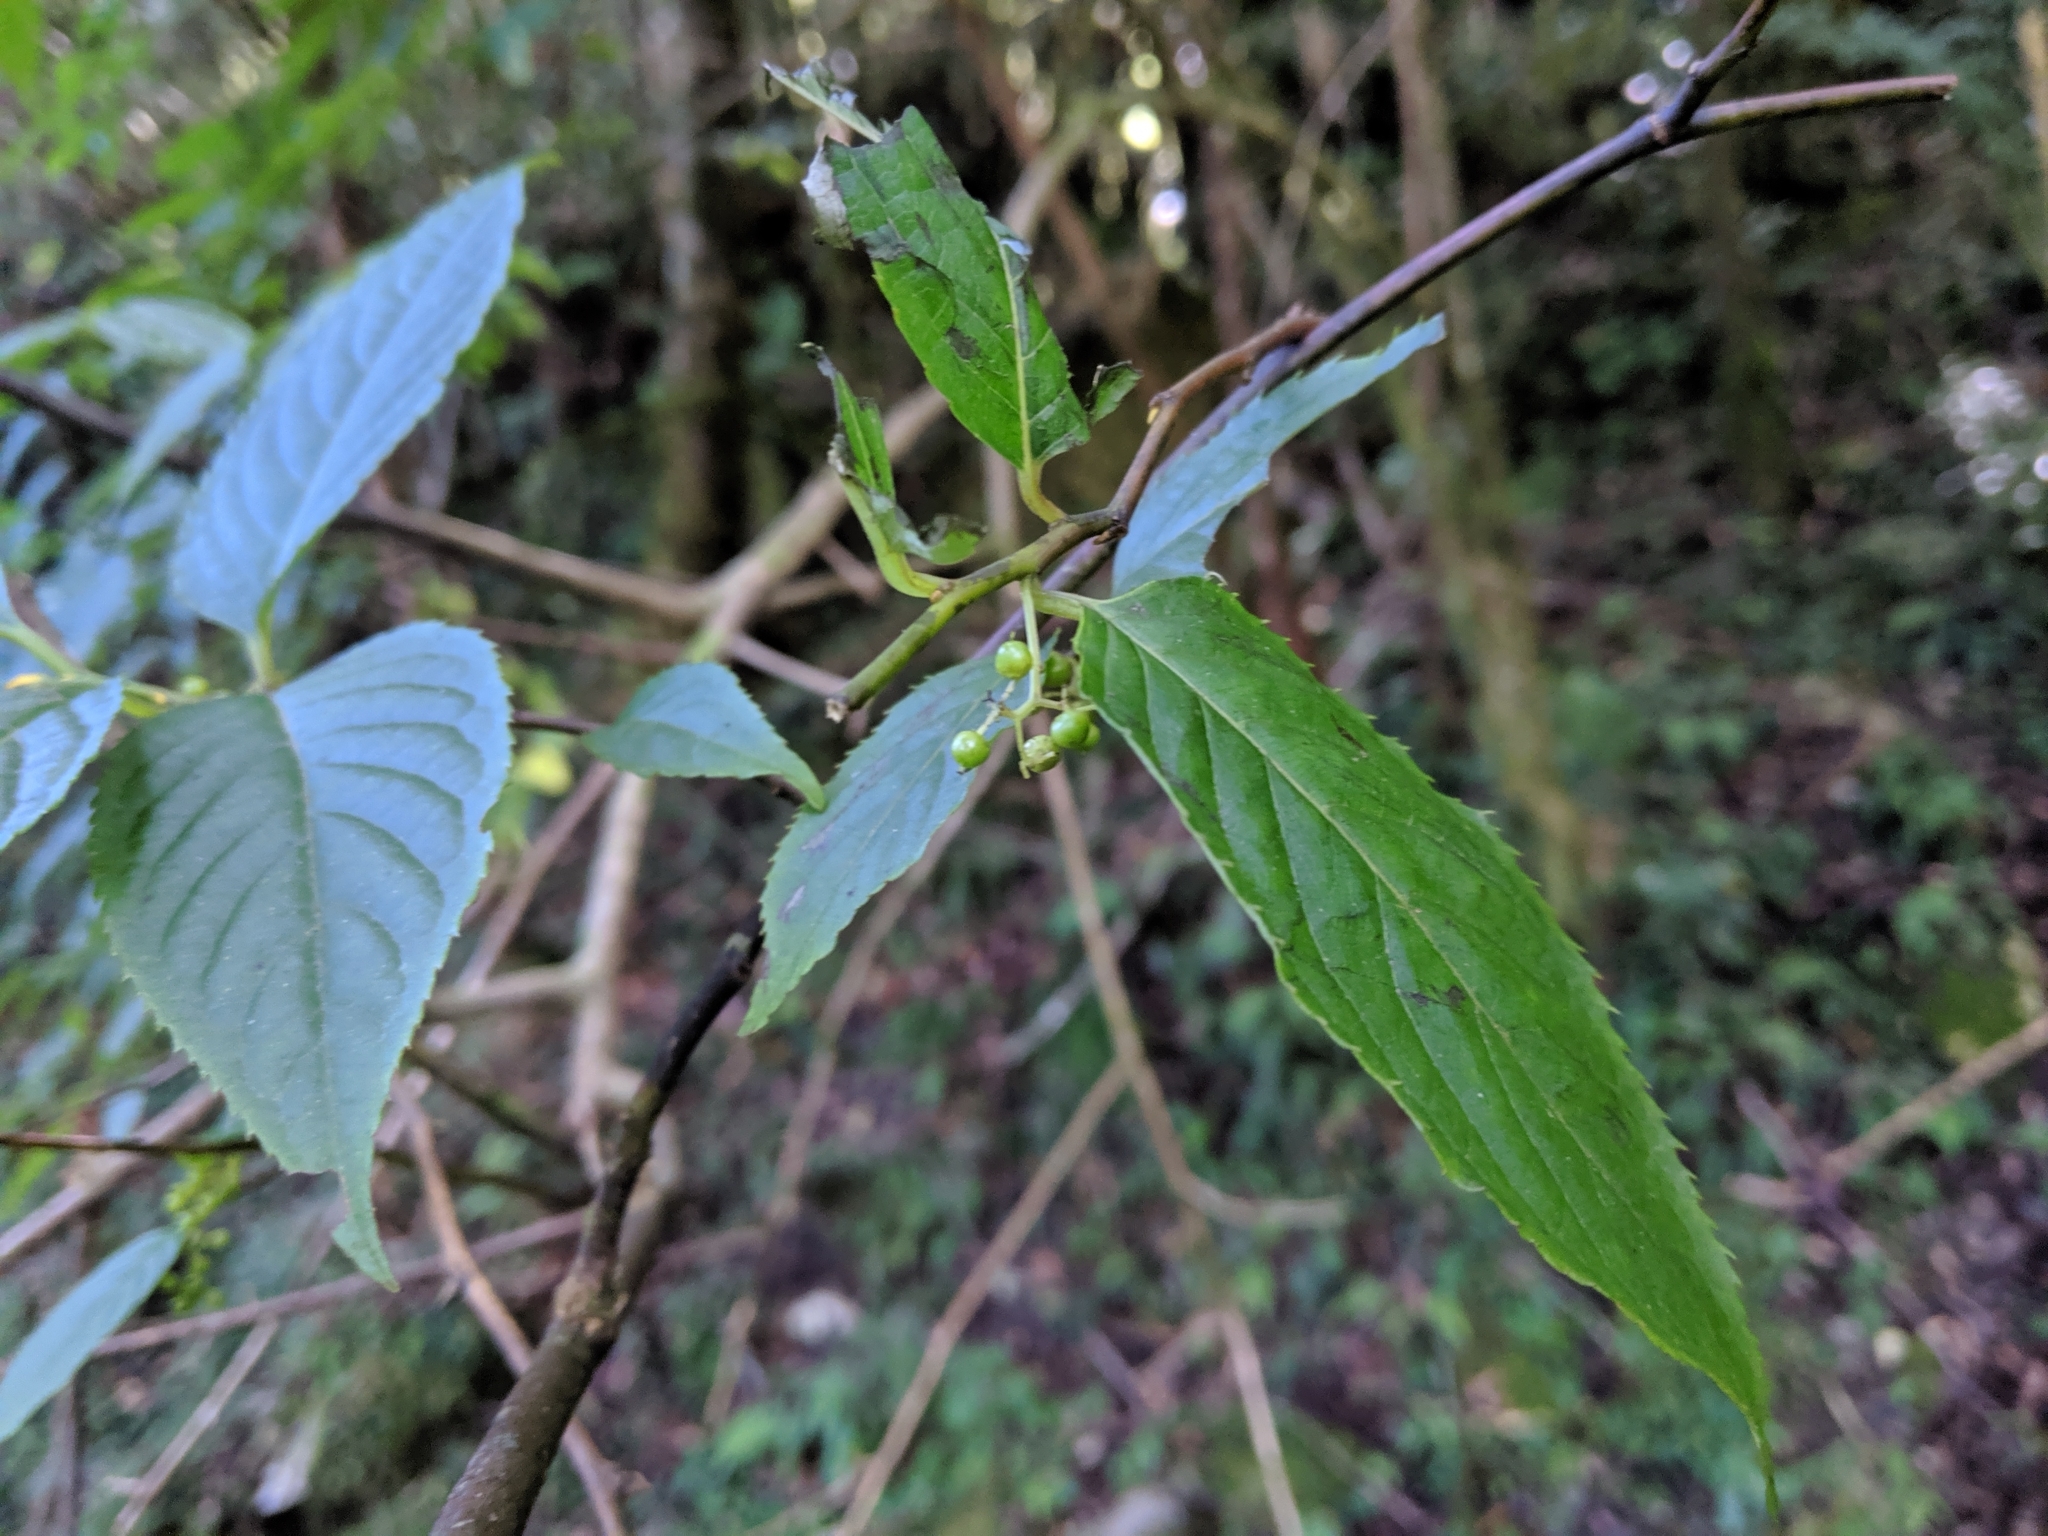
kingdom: Plantae
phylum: Tracheophyta
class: Magnoliopsida
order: Huerteales
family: Dipentodontaceae
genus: Perrottetia
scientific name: Perrottetia arisanensis
